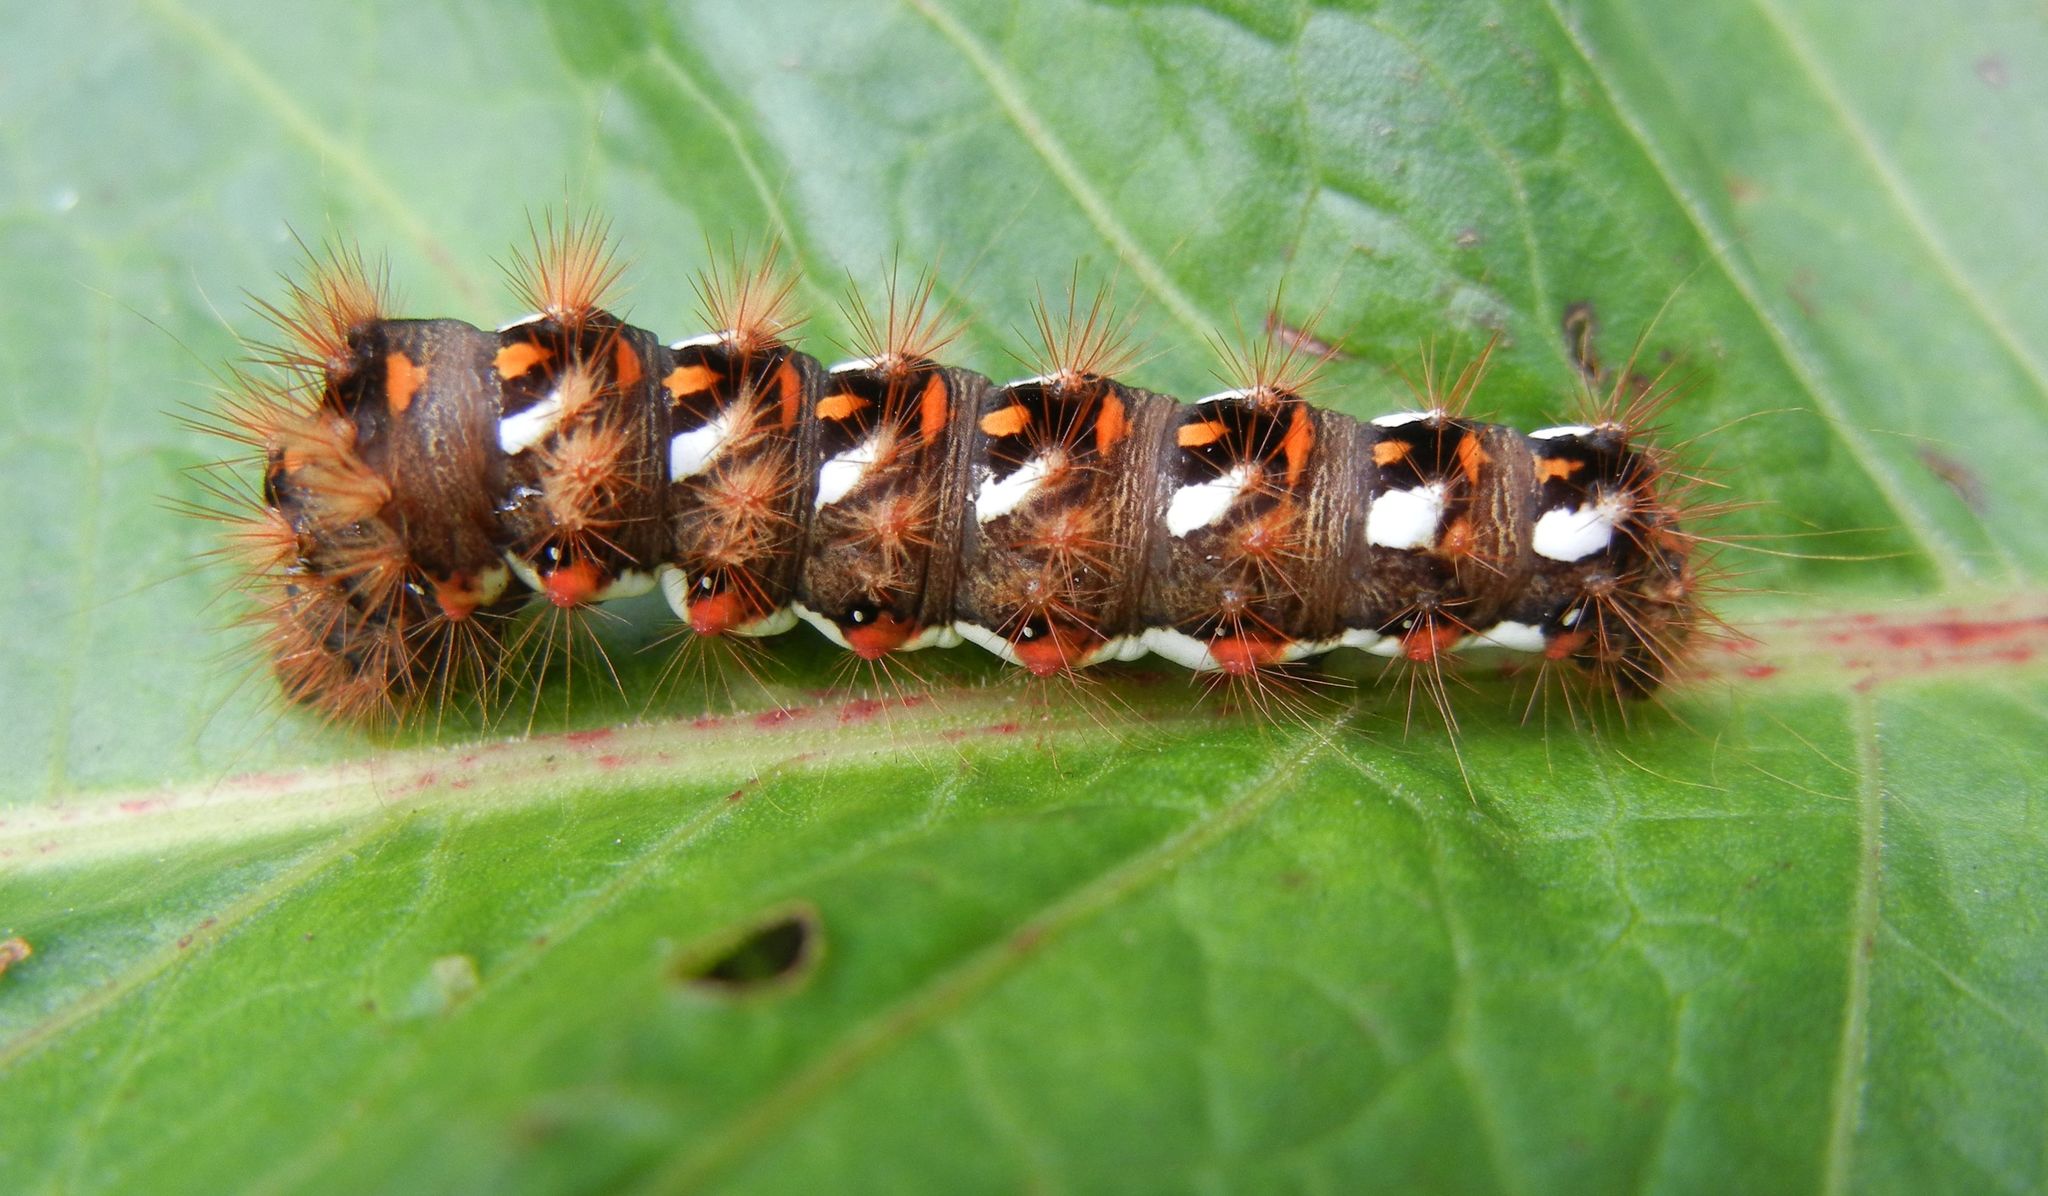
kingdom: Animalia
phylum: Arthropoda
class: Insecta
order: Lepidoptera
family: Noctuidae
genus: Acronicta
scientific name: Acronicta rumicis
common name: Knot grass
